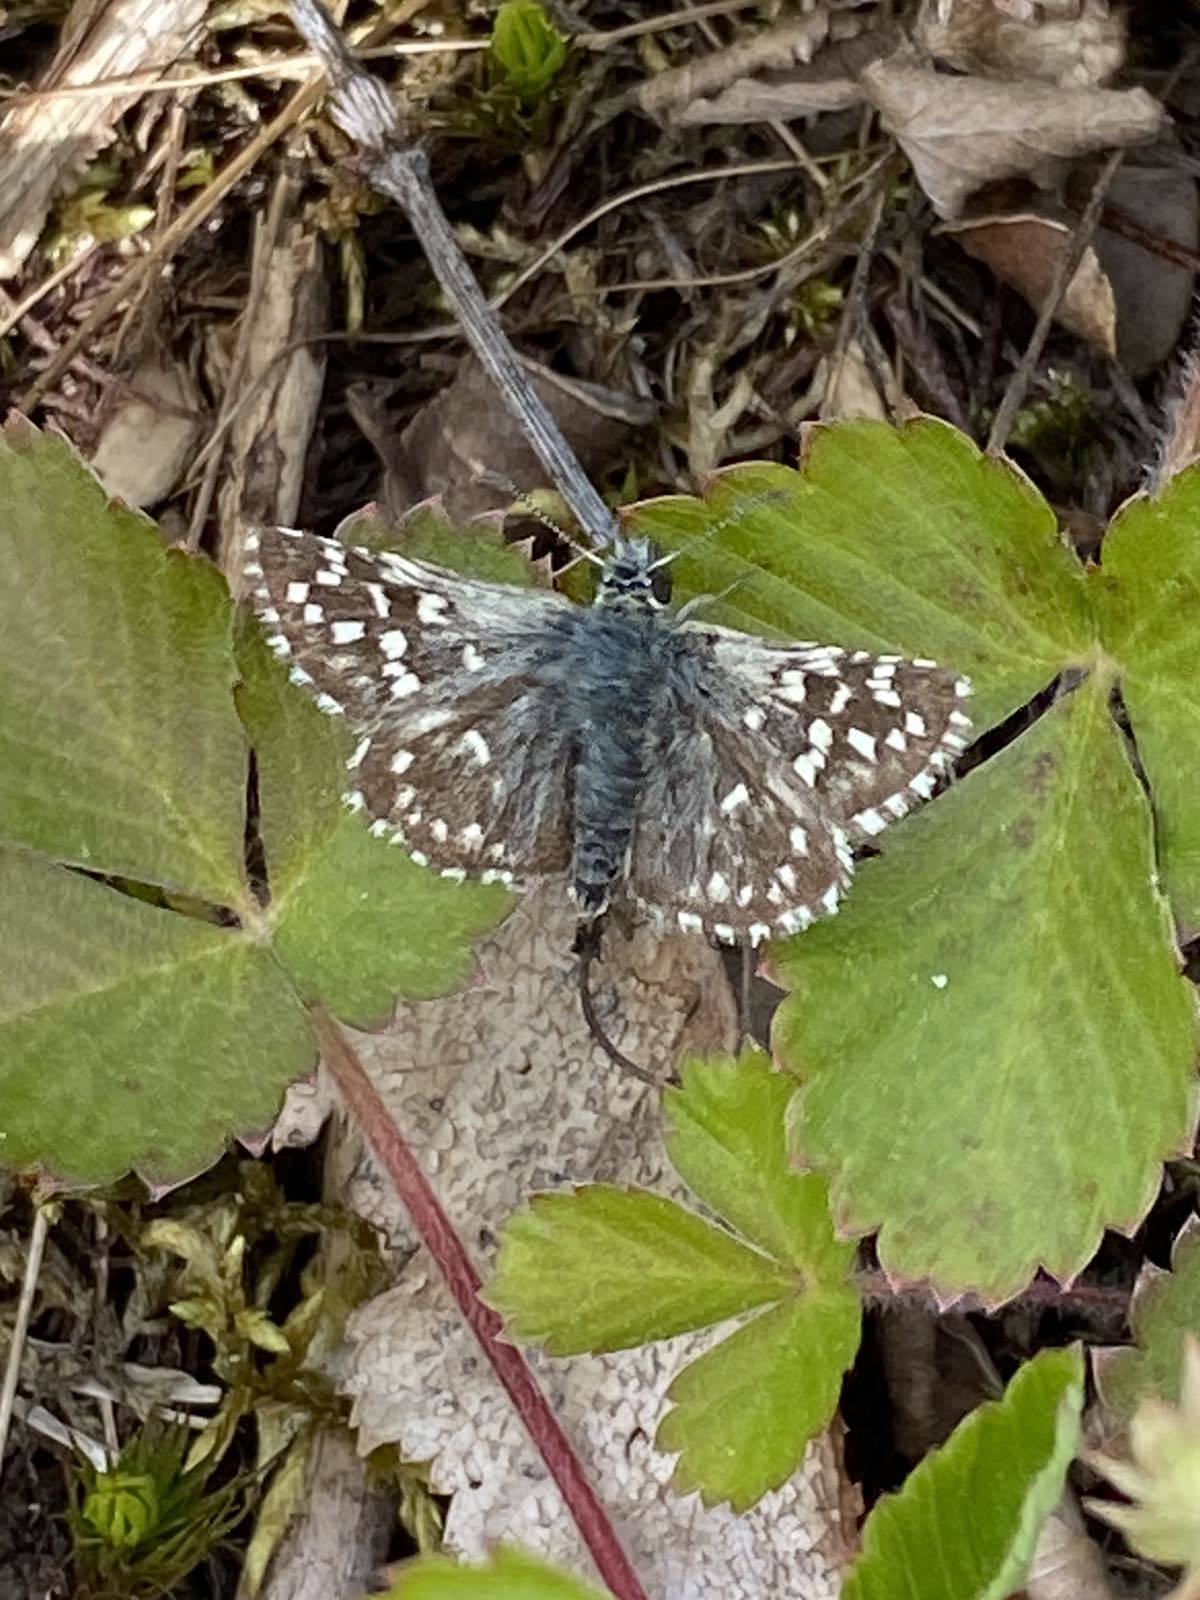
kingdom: Animalia
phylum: Arthropoda
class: Insecta
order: Lepidoptera
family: Hesperiidae
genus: Pyrgus
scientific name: Pyrgus malvae
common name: Grizzled skipper
